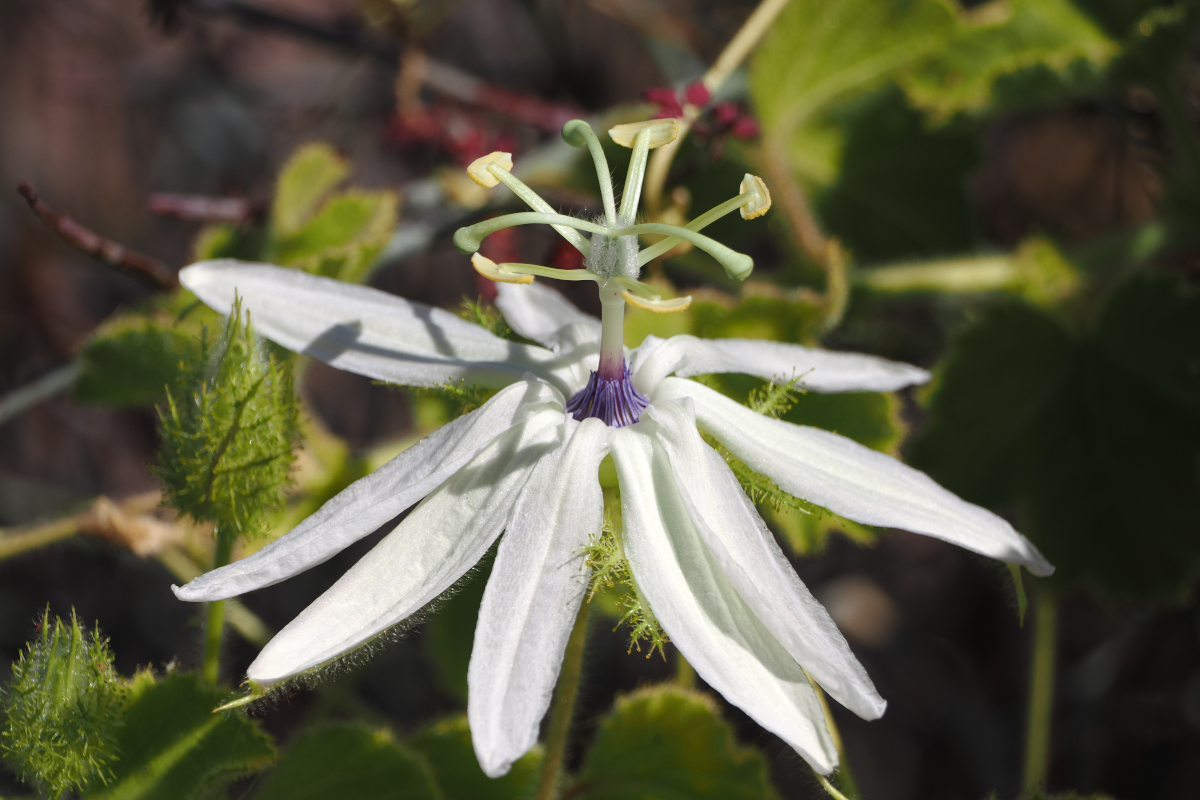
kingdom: Plantae
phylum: Tracheophyta
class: Magnoliopsida
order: Malpighiales
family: Passifloraceae
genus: Passiflora
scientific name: Passiflora palmeri
